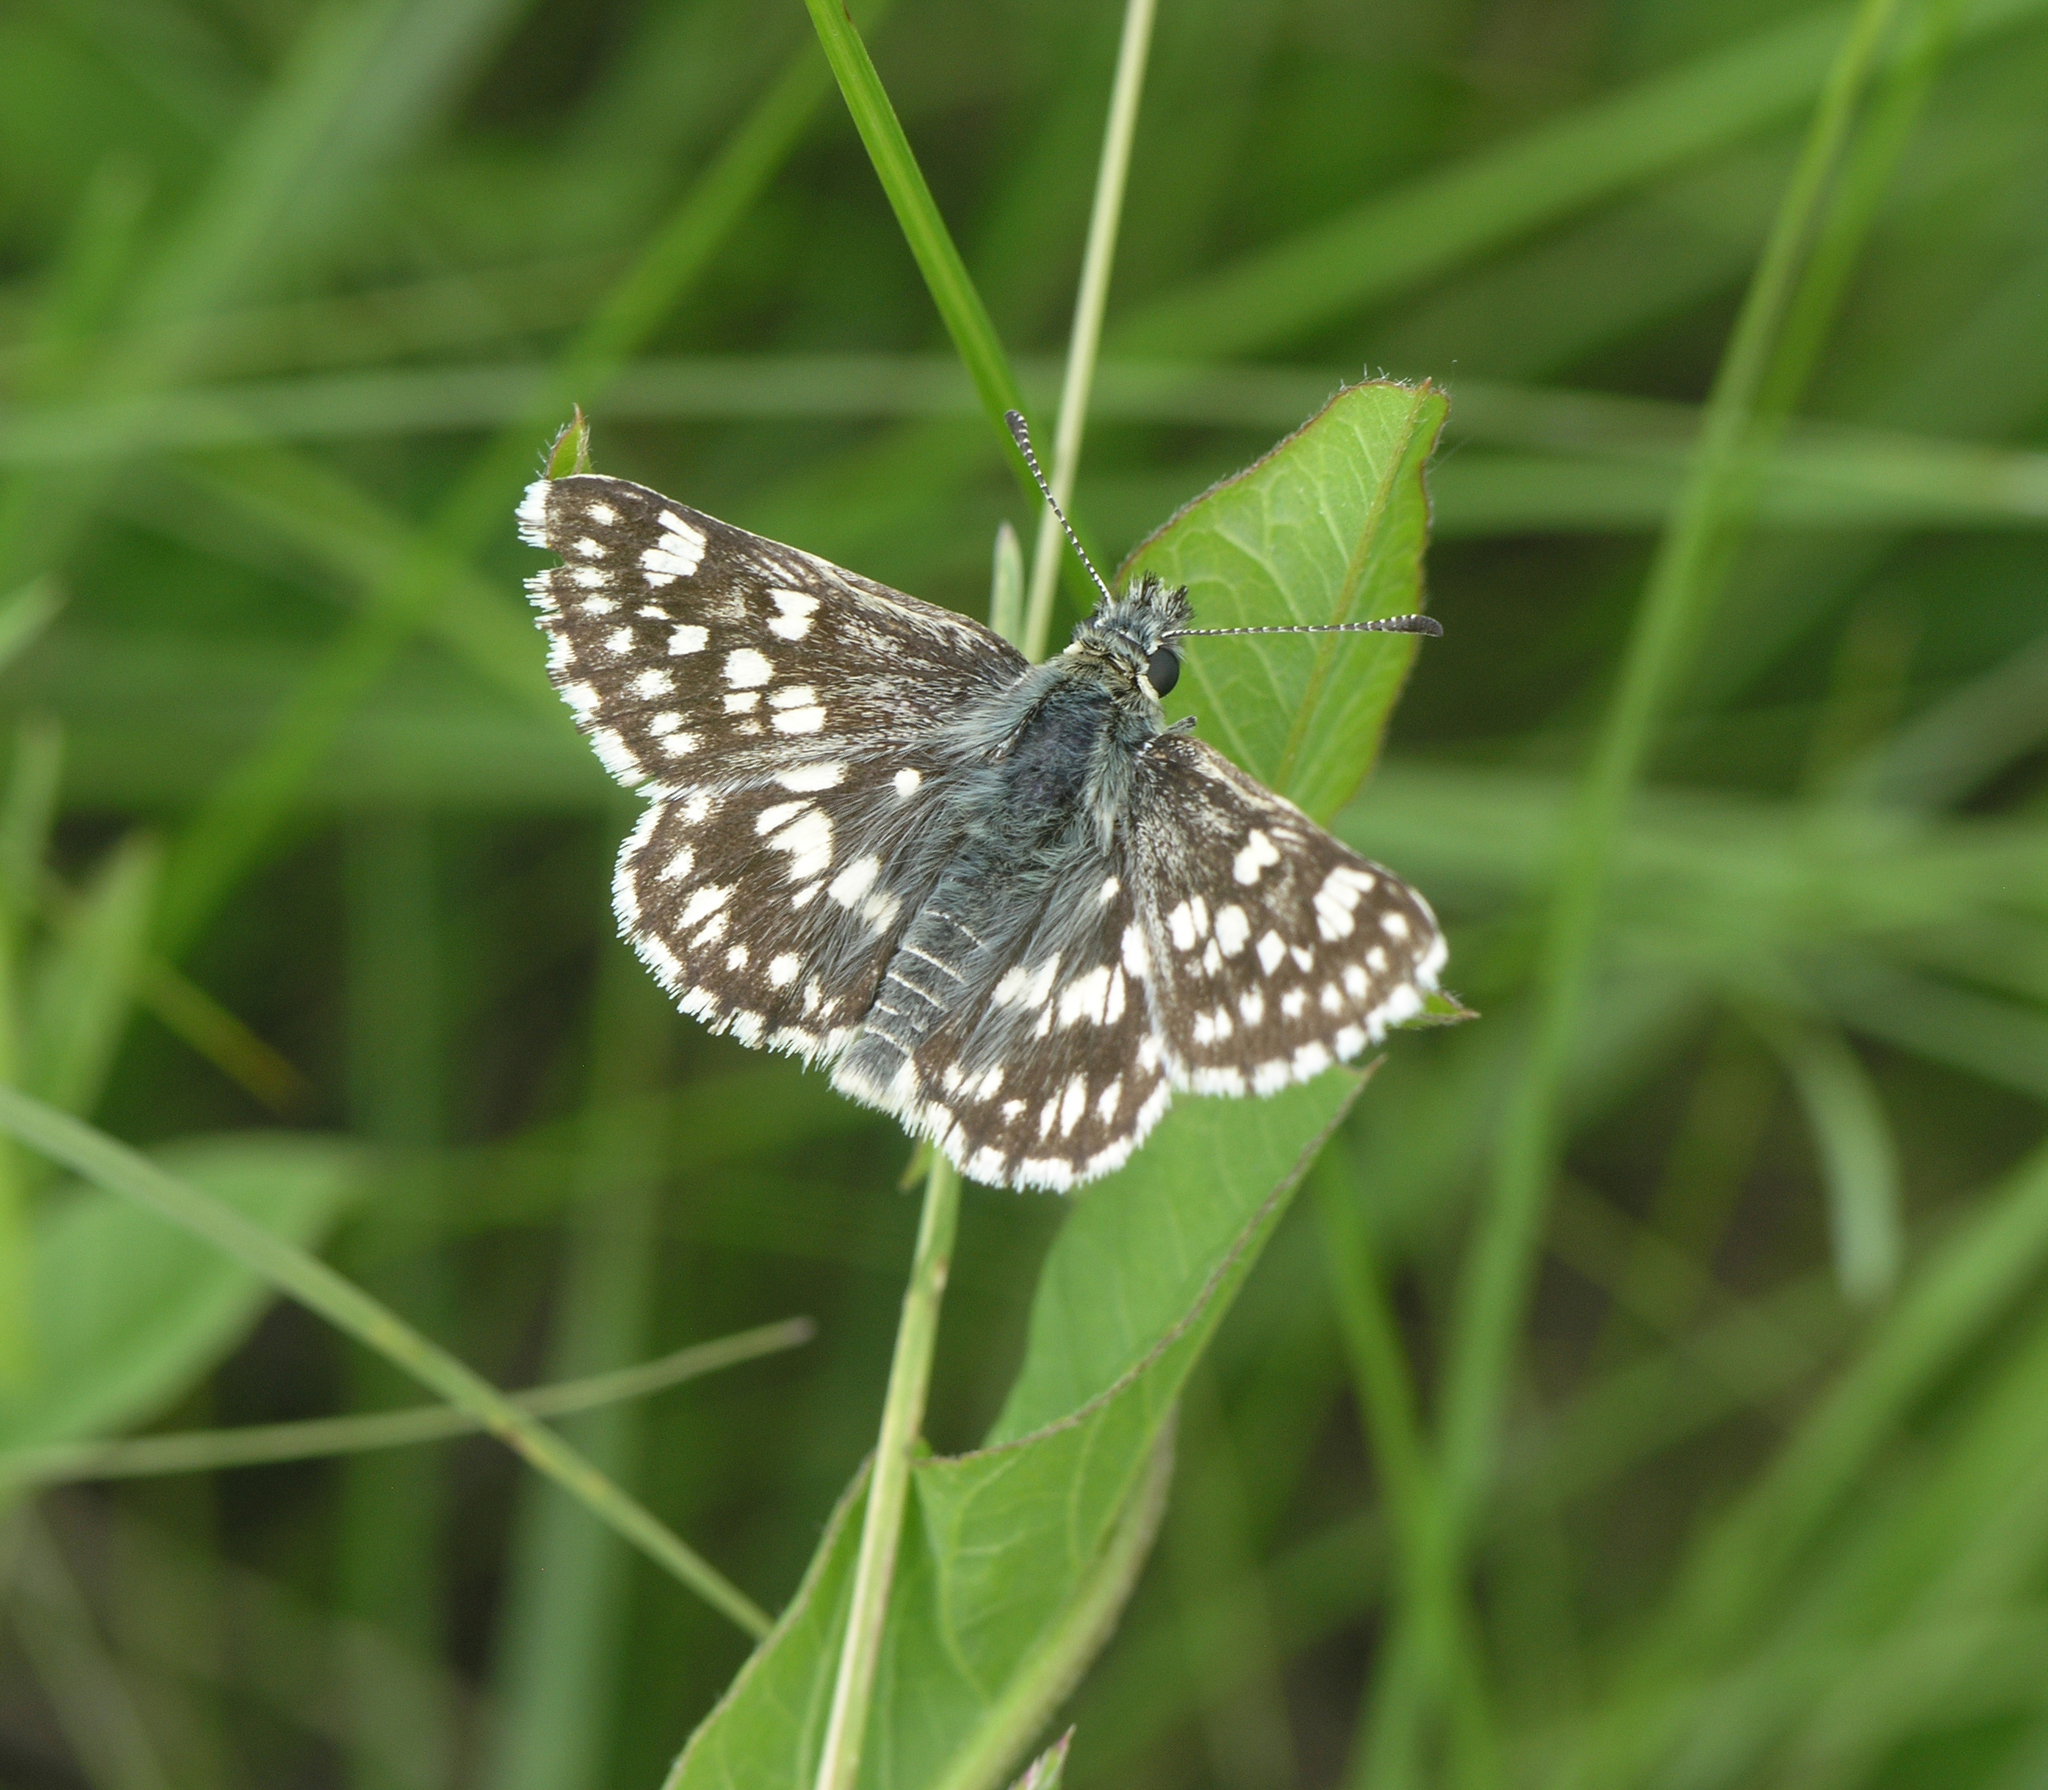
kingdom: Animalia
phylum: Arthropoda
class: Insecta
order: Lepidoptera
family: Hesperiidae
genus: Syrichtus
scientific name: Syrichtus cribrellum
